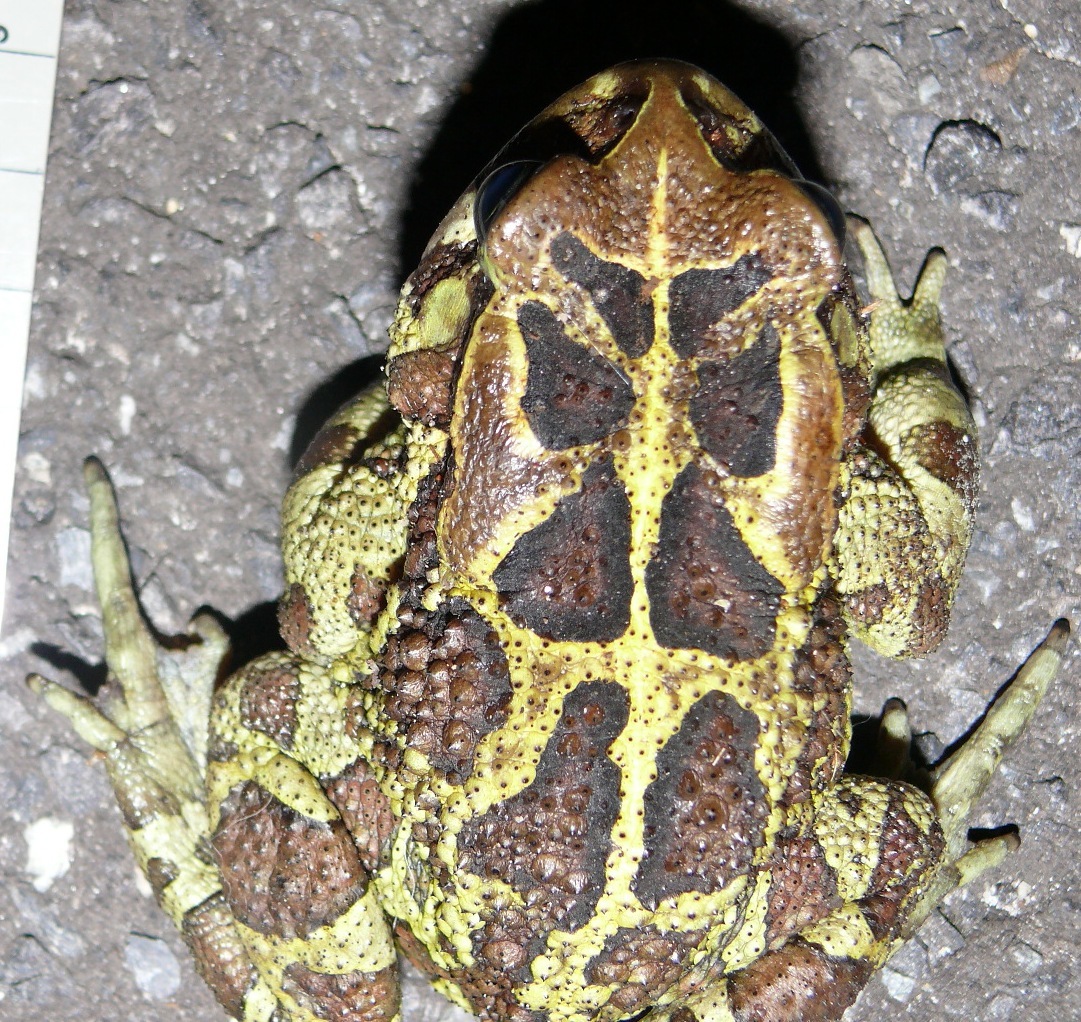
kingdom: Animalia
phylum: Chordata
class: Amphibia
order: Anura
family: Bufonidae
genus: Sclerophrys
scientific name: Sclerophrys pantherina
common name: Panther toad
